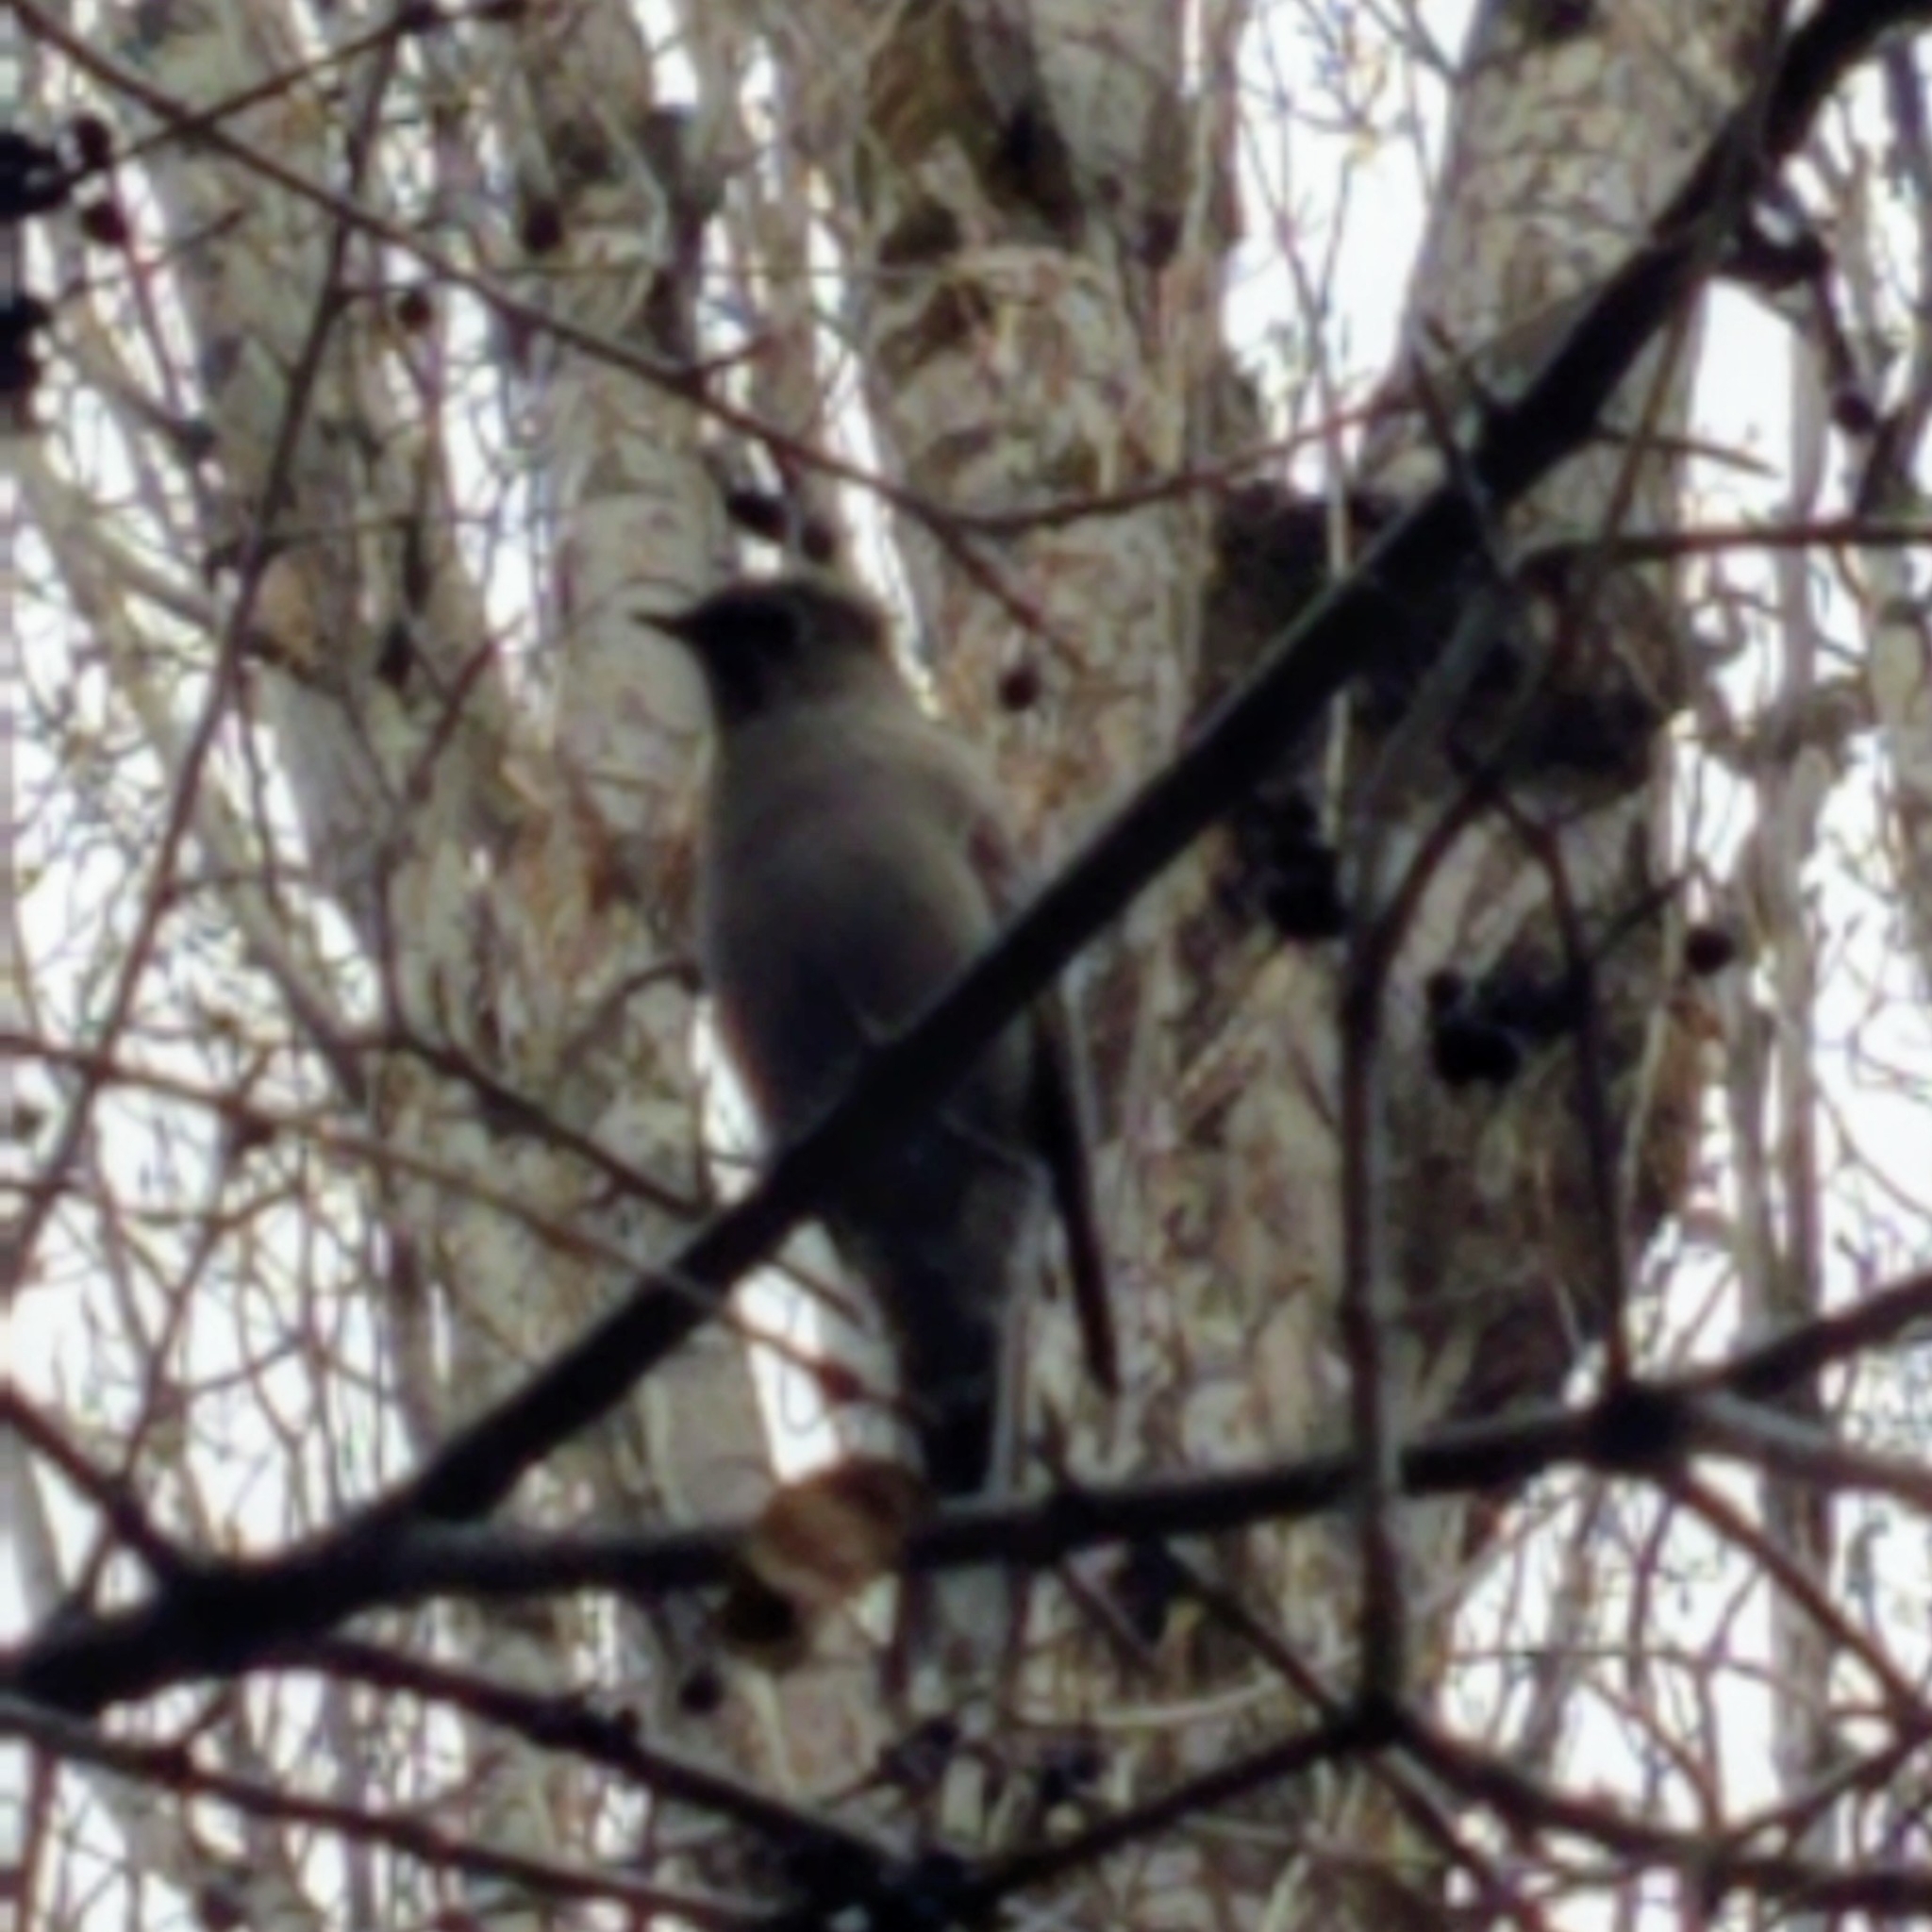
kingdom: Animalia
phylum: Chordata
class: Aves
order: Passeriformes
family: Turdidae
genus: Myadestes
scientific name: Myadestes townsendi
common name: Townsend's solitaire
